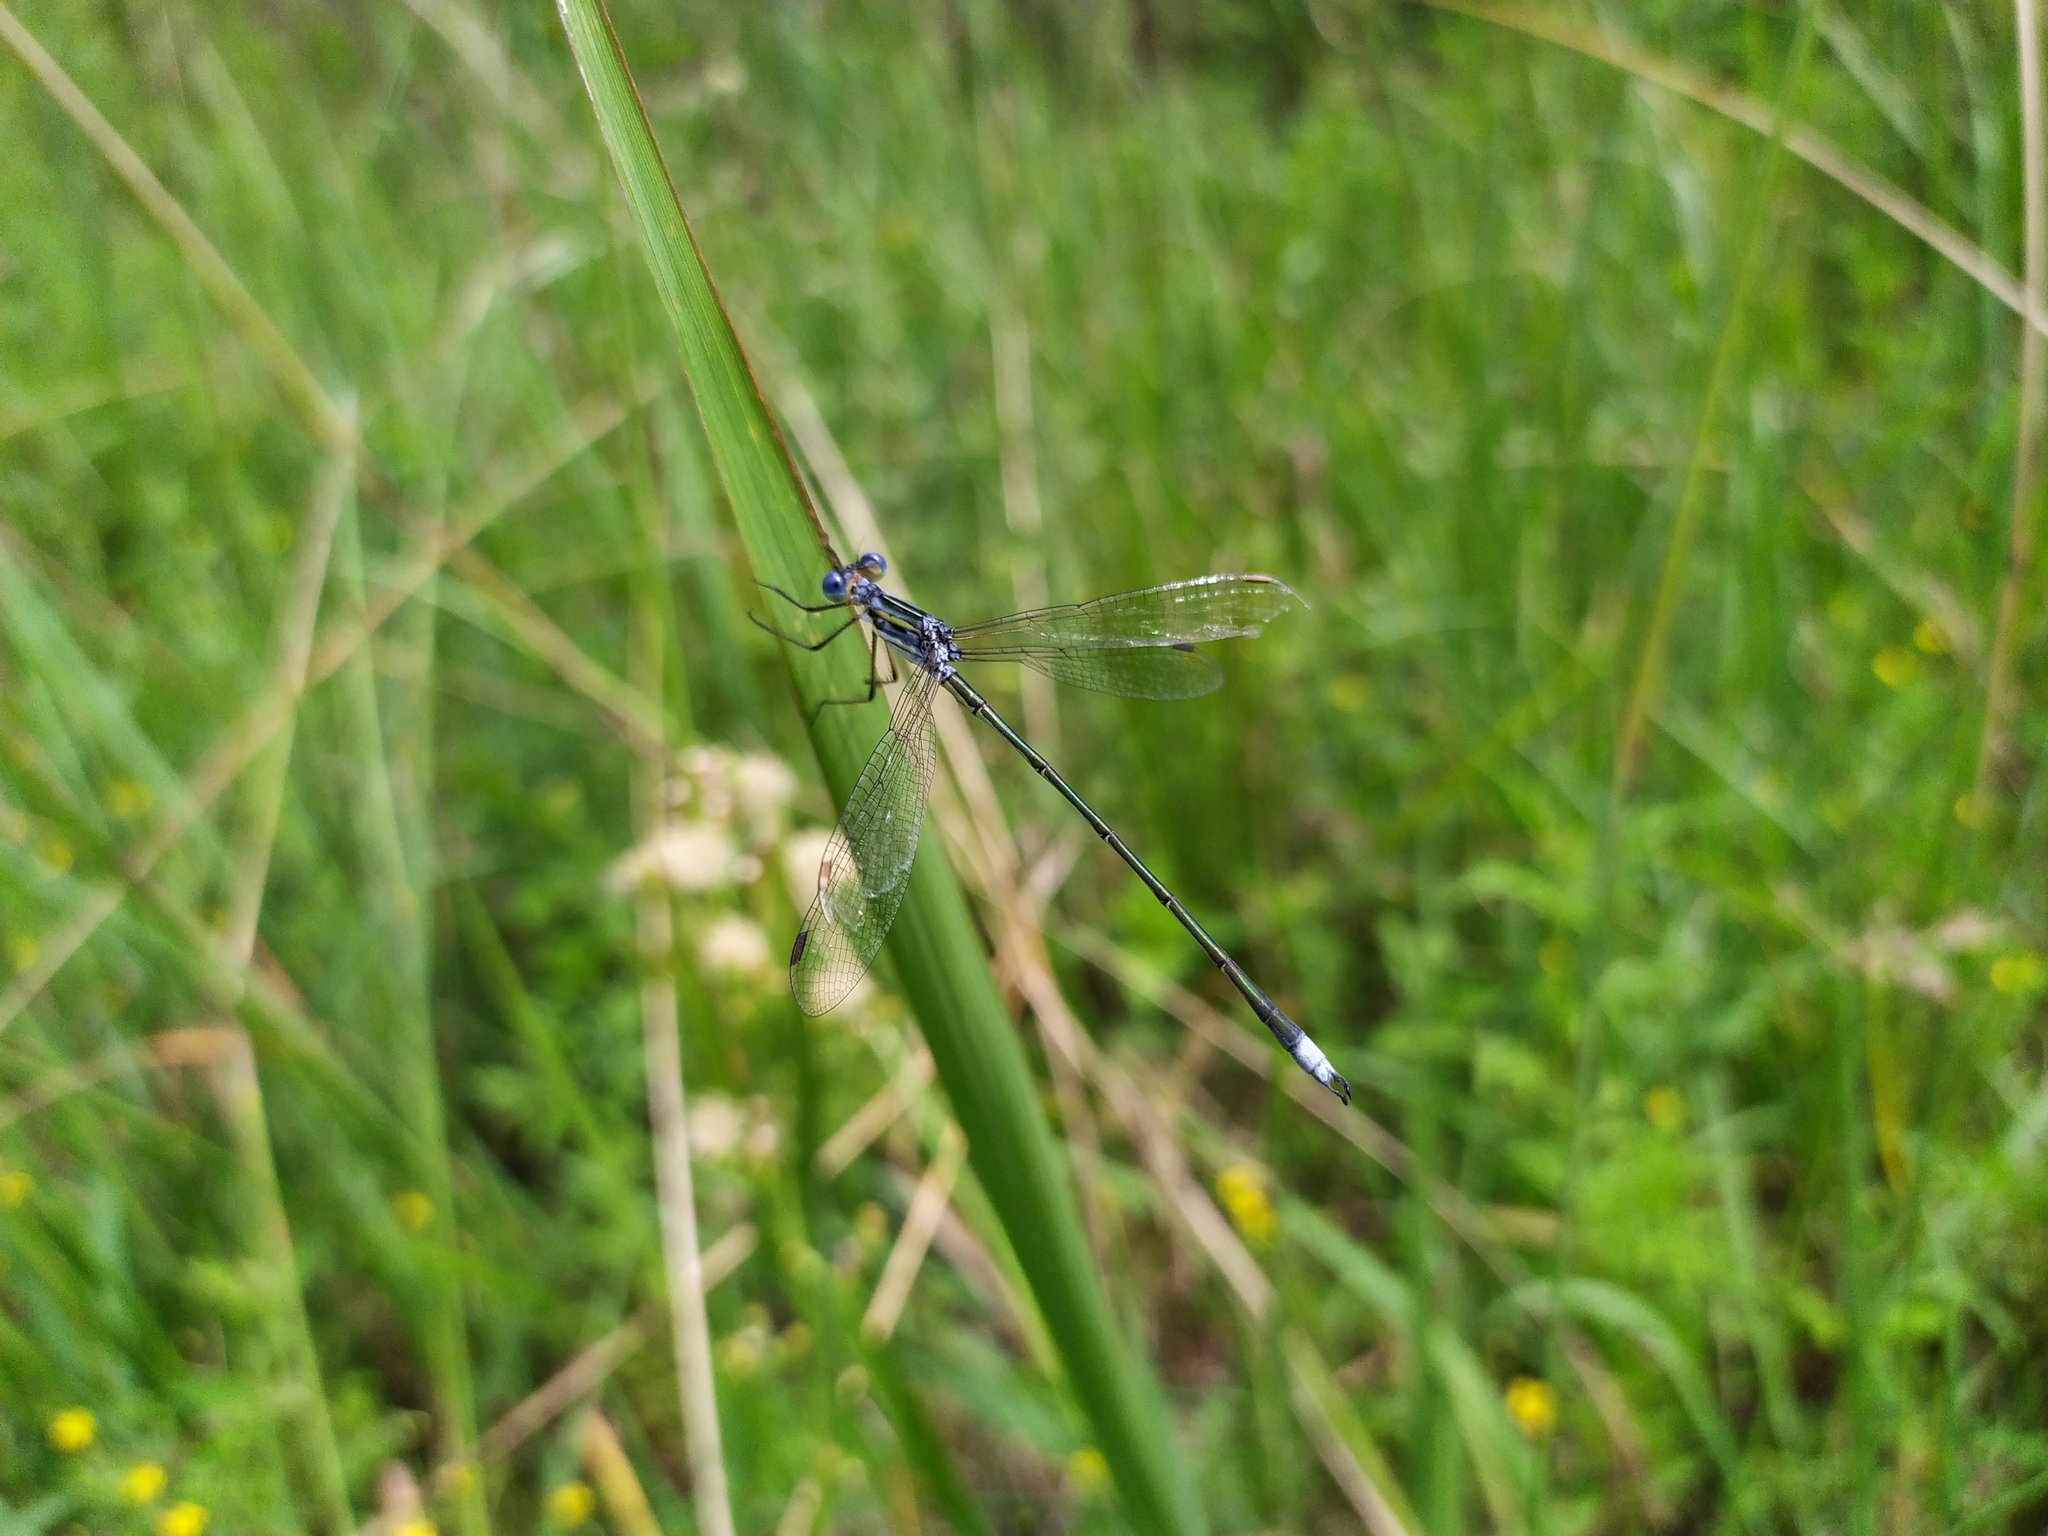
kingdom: Animalia
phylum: Arthropoda
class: Insecta
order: Odonata
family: Lestidae
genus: Lestes
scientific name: Lestes plagiatus
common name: Highland spreadwing
